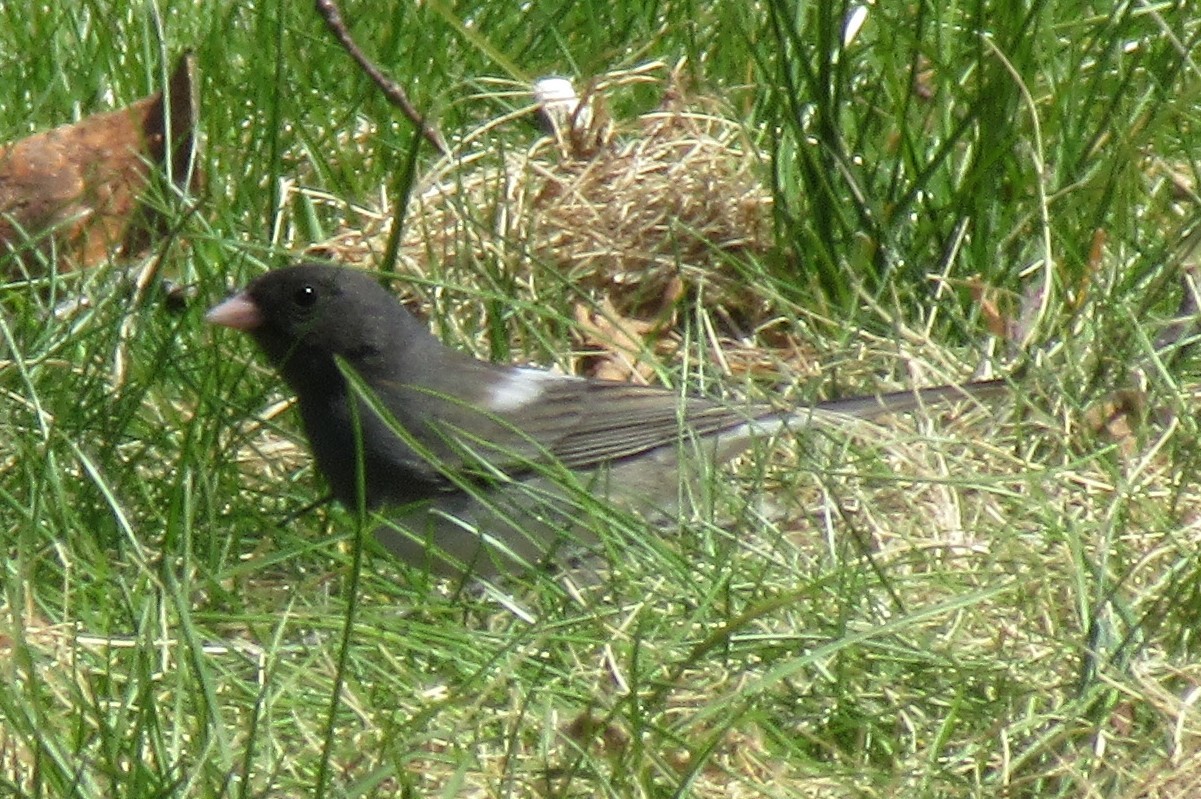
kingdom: Animalia
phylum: Chordata
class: Aves
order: Passeriformes
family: Passerellidae
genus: Junco
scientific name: Junco hyemalis
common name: Dark-eyed junco
